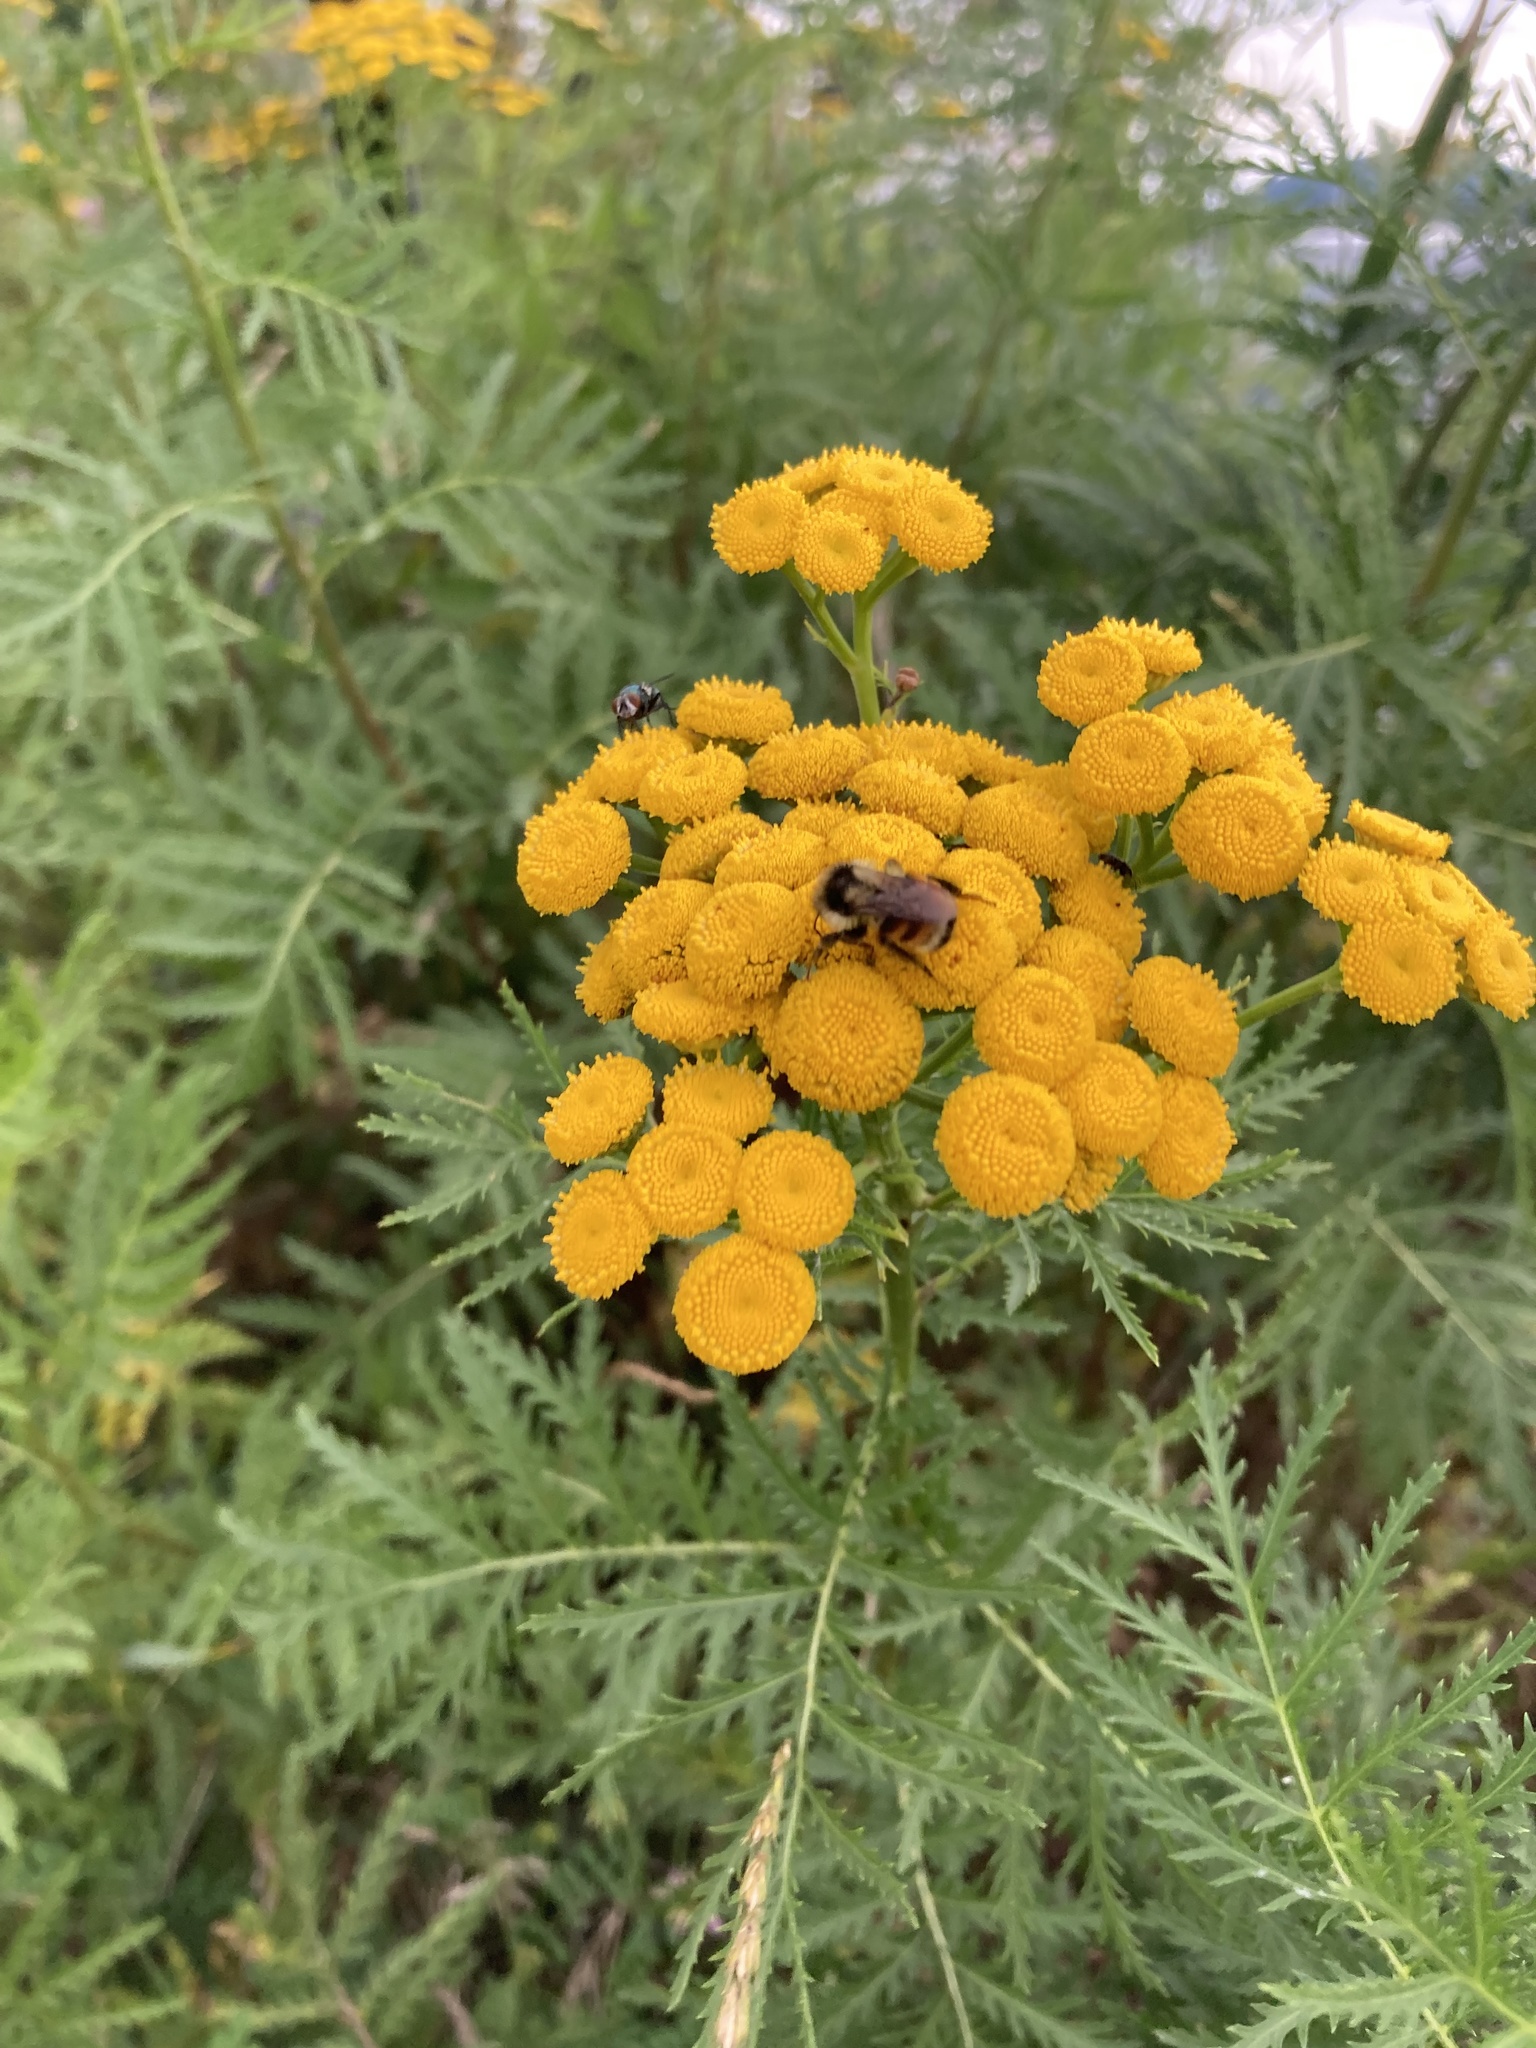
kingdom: Plantae
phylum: Tracheophyta
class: Magnoliopsida
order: Asterales
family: Asteraceae
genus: Tanacetum
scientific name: Tanacetum vulgare
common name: Common tansy
